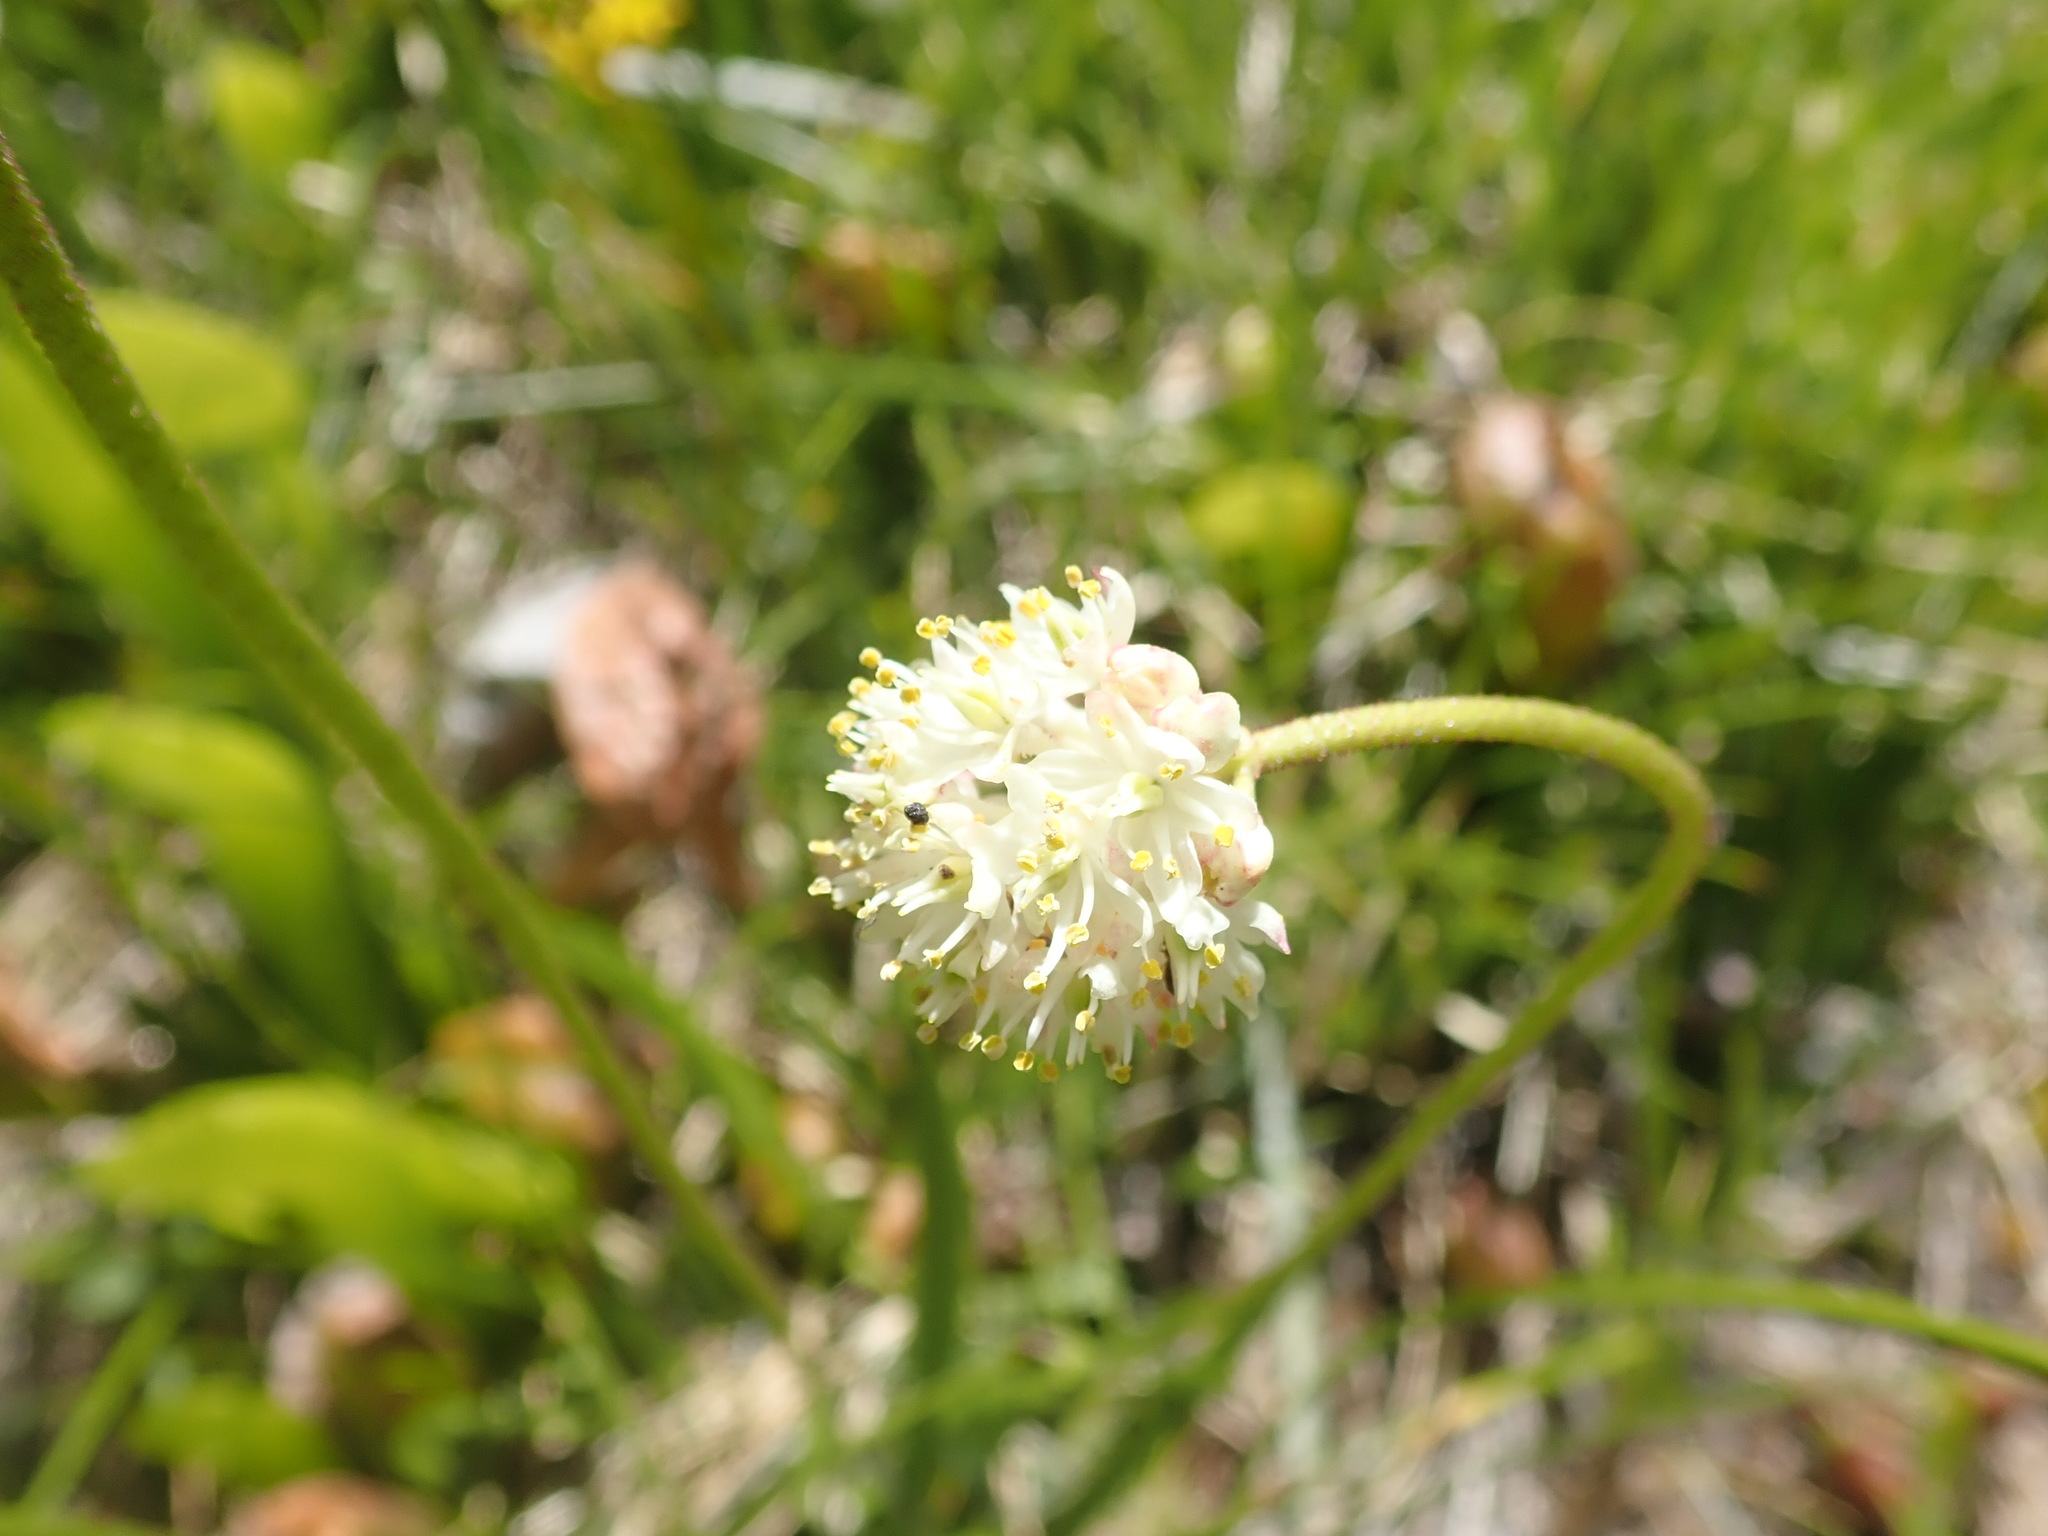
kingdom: Plantae
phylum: Tracheophyta
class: Liliopsida
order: Alismatales
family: Tofieldiaceae
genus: Triantha
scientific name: Triantha occidentalis
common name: Western false asphodel
